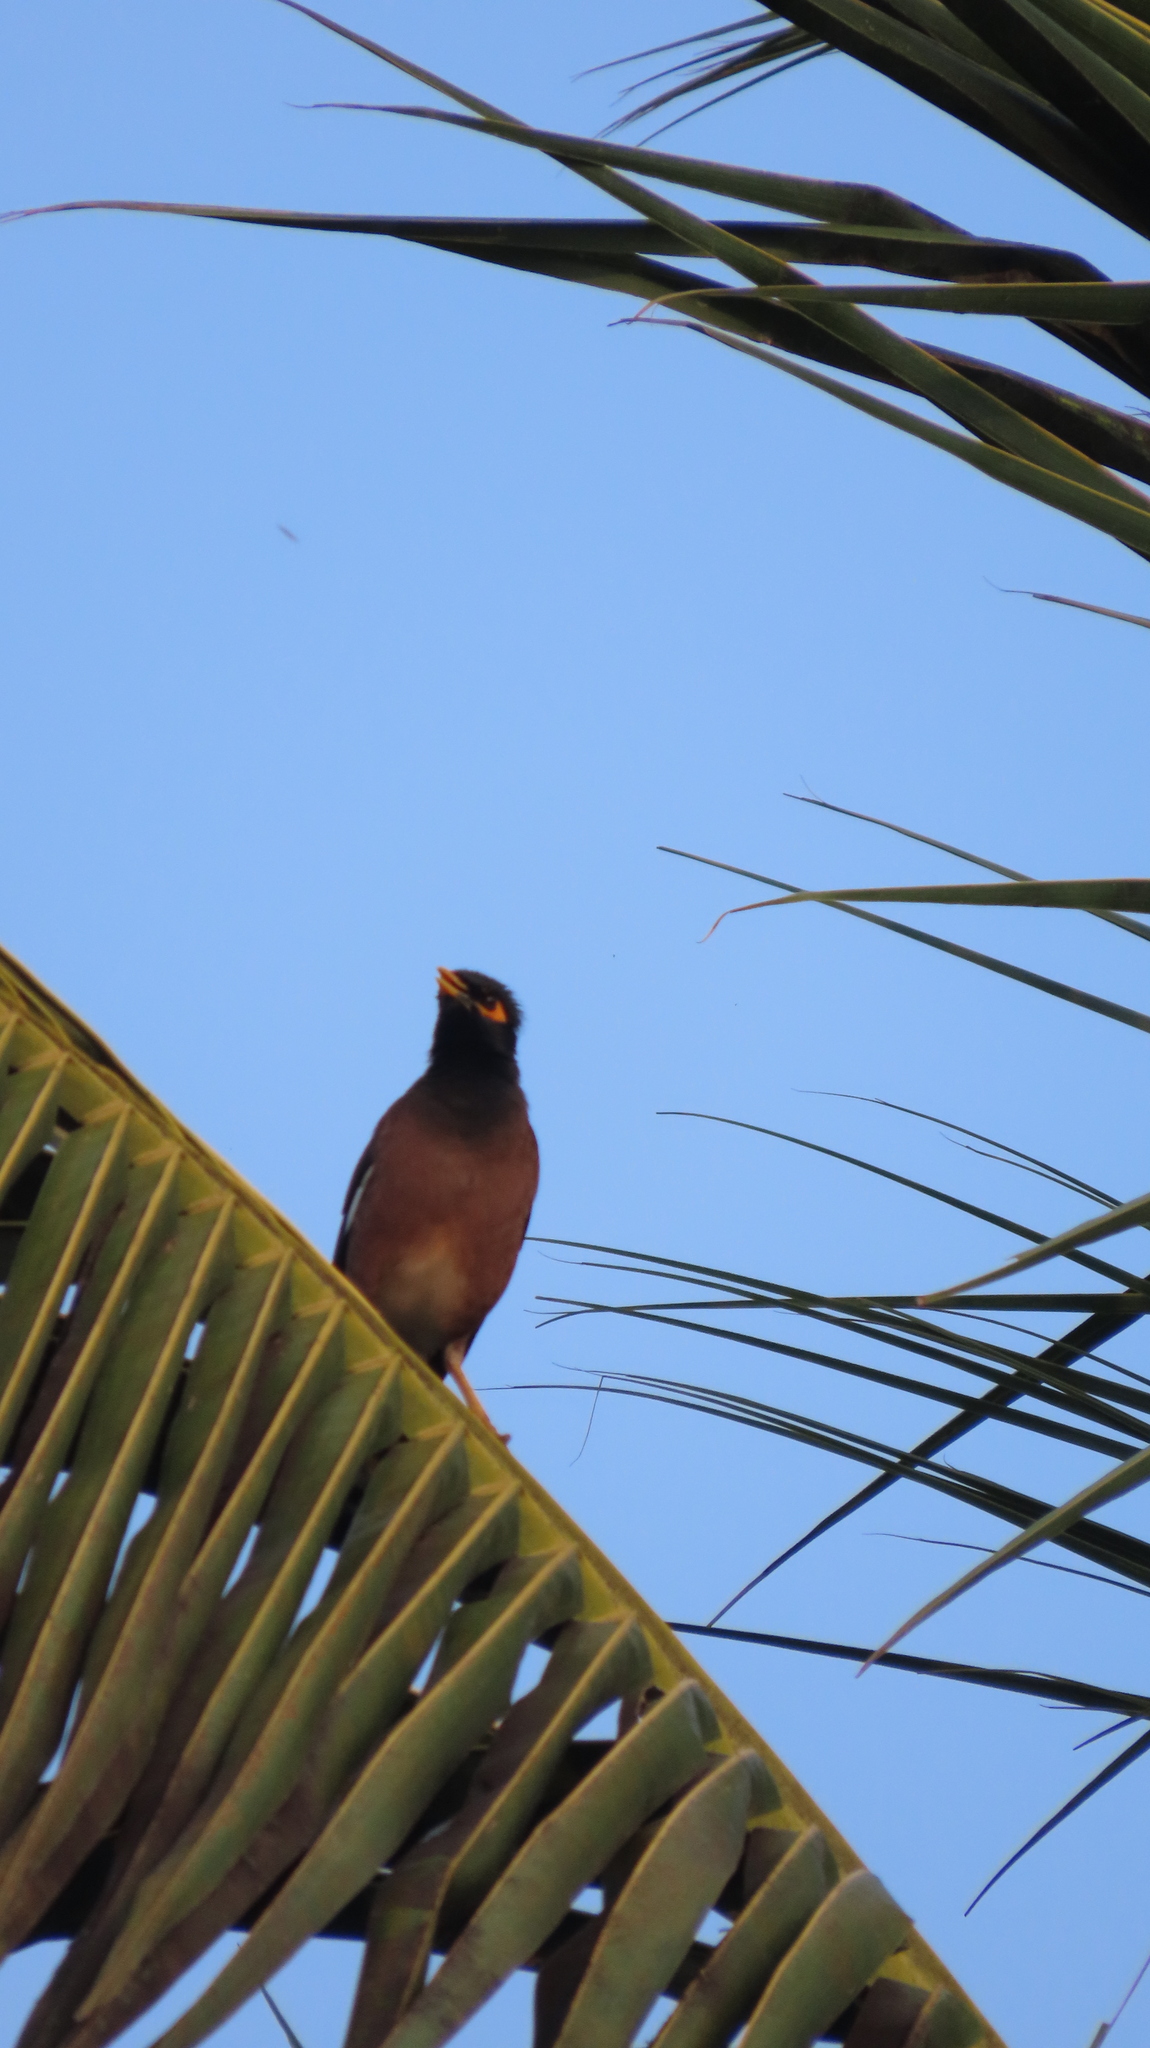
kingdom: Animalia
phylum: Chordata
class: Aves
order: Passeriformes
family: Sturnidae
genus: Acridotheres
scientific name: Acridotheres tristis
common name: Common myna
